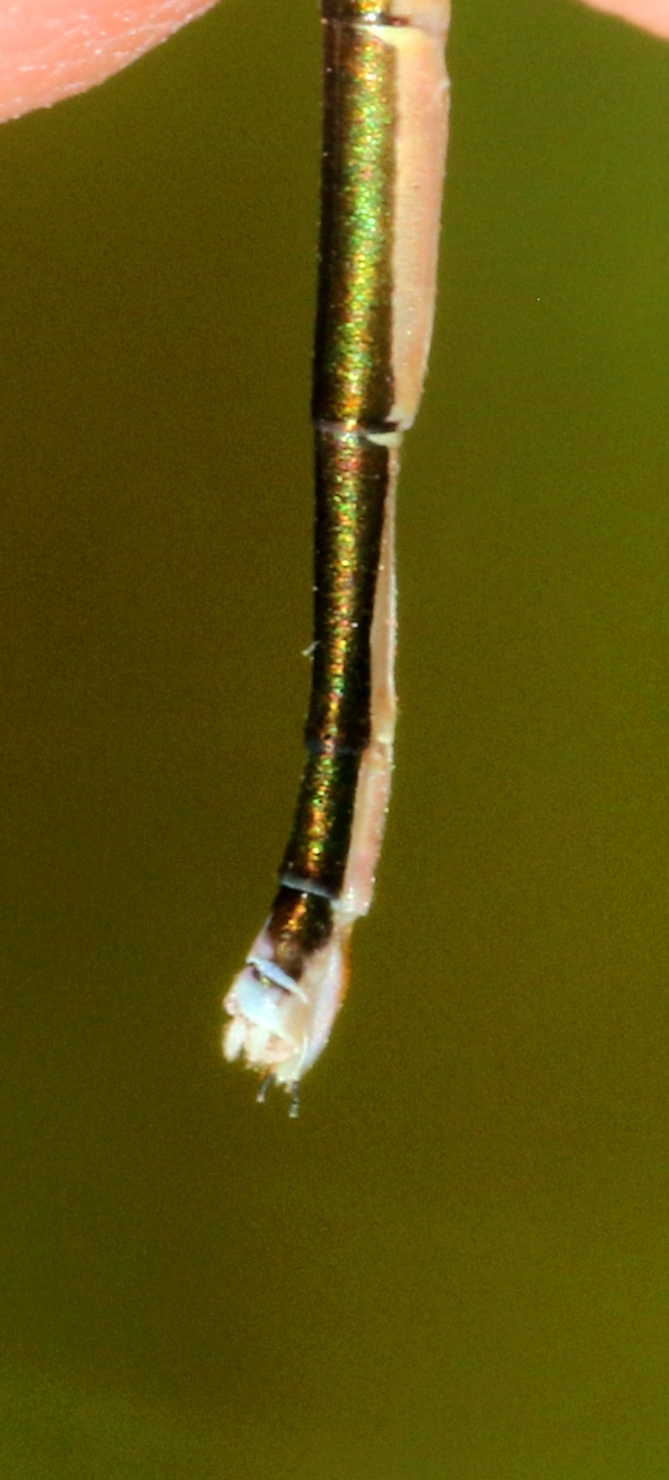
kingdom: Animalia
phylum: Arthropoda
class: Insecta
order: Odonata
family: Coenagrionidae
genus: Nehalennia
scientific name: Nehalennia irene
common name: Sedge sprite
